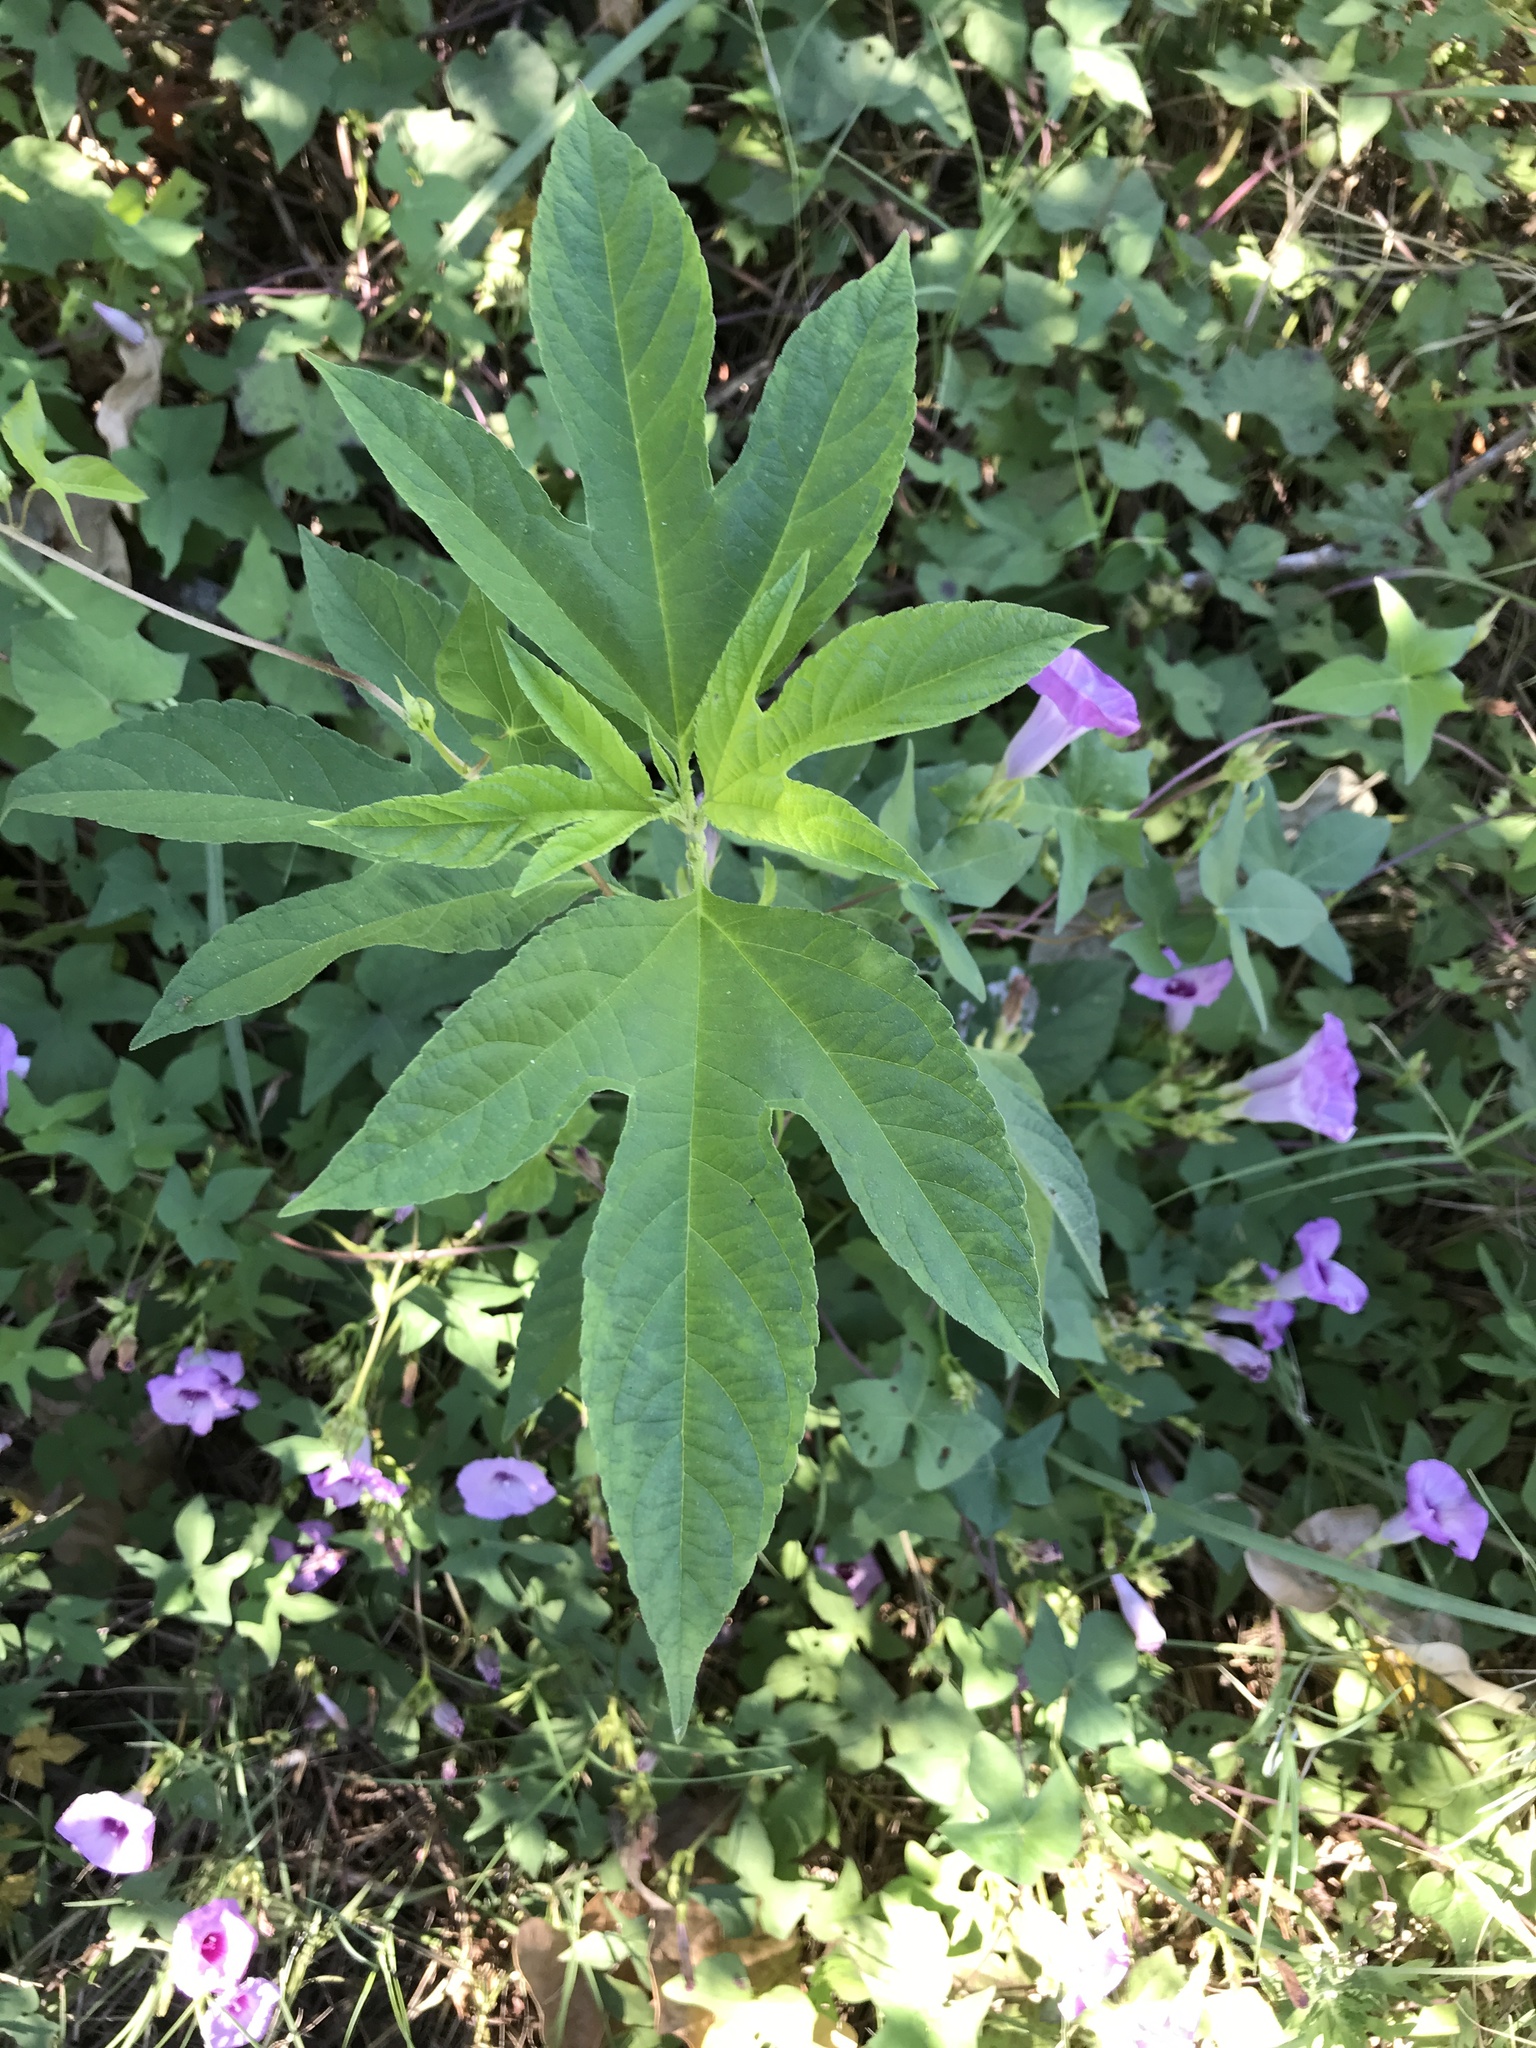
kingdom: Plantae
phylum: Tracheophyta
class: Magnoliopsida
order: Asterales
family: Asteraceae
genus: Ambrosia
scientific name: Ambrosia trifida
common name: Giant ragweed
